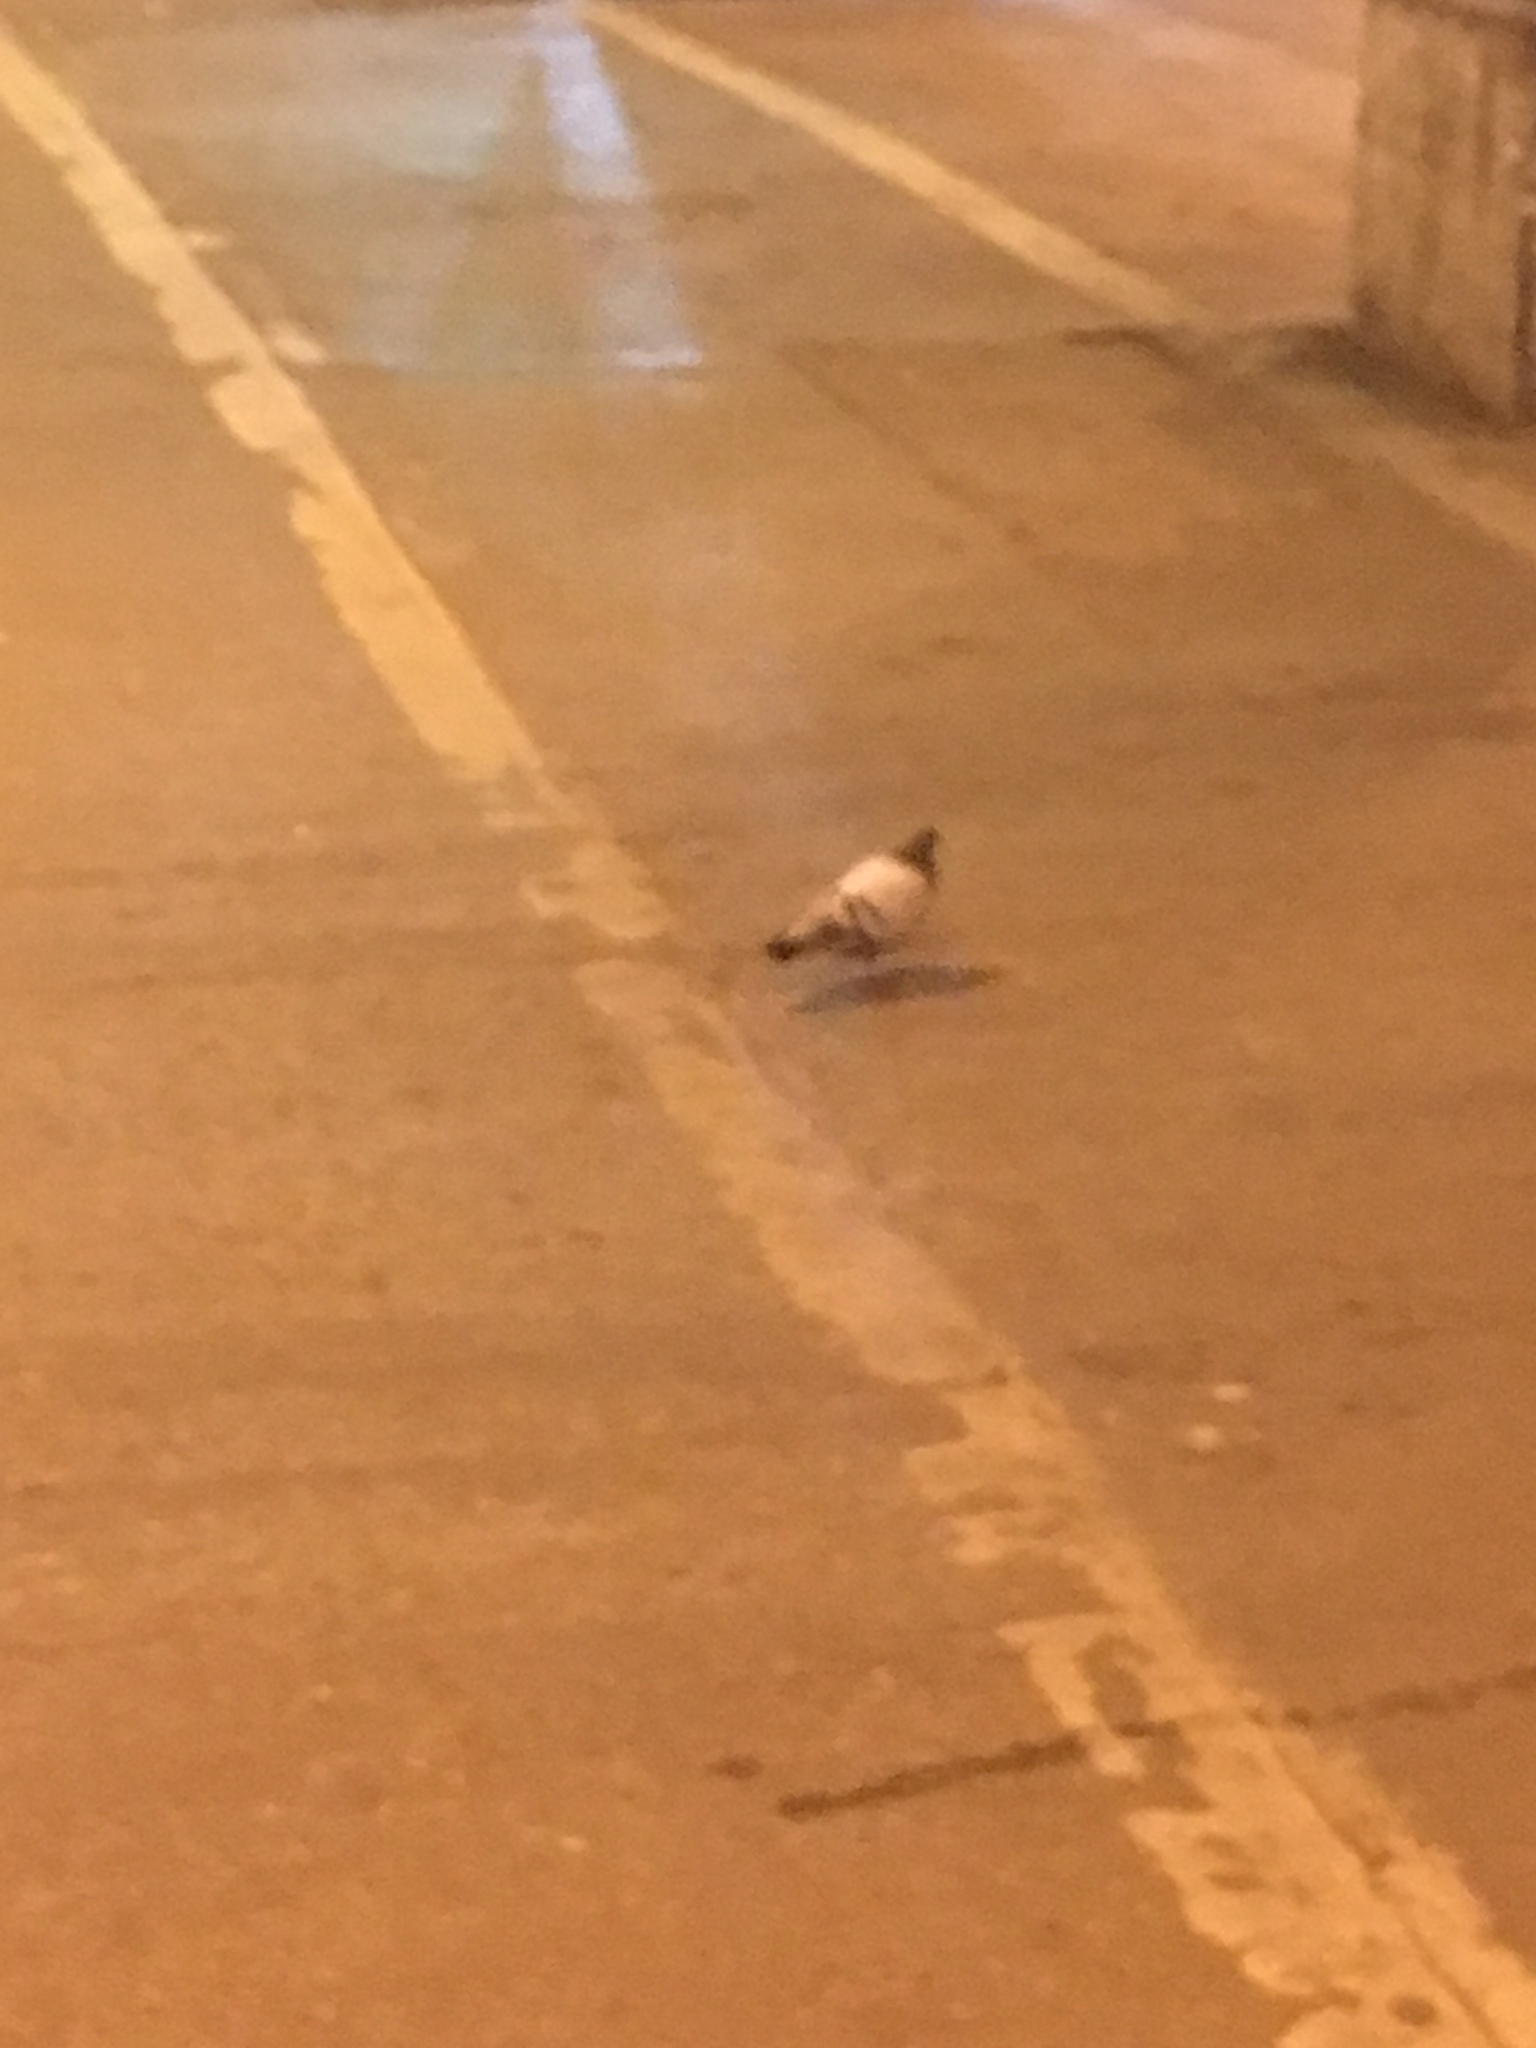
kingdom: Animalia
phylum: Chordata
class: Aves
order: Columbiformes
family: Columbidae
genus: Columba
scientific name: Columba livia
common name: Rock pigeon
